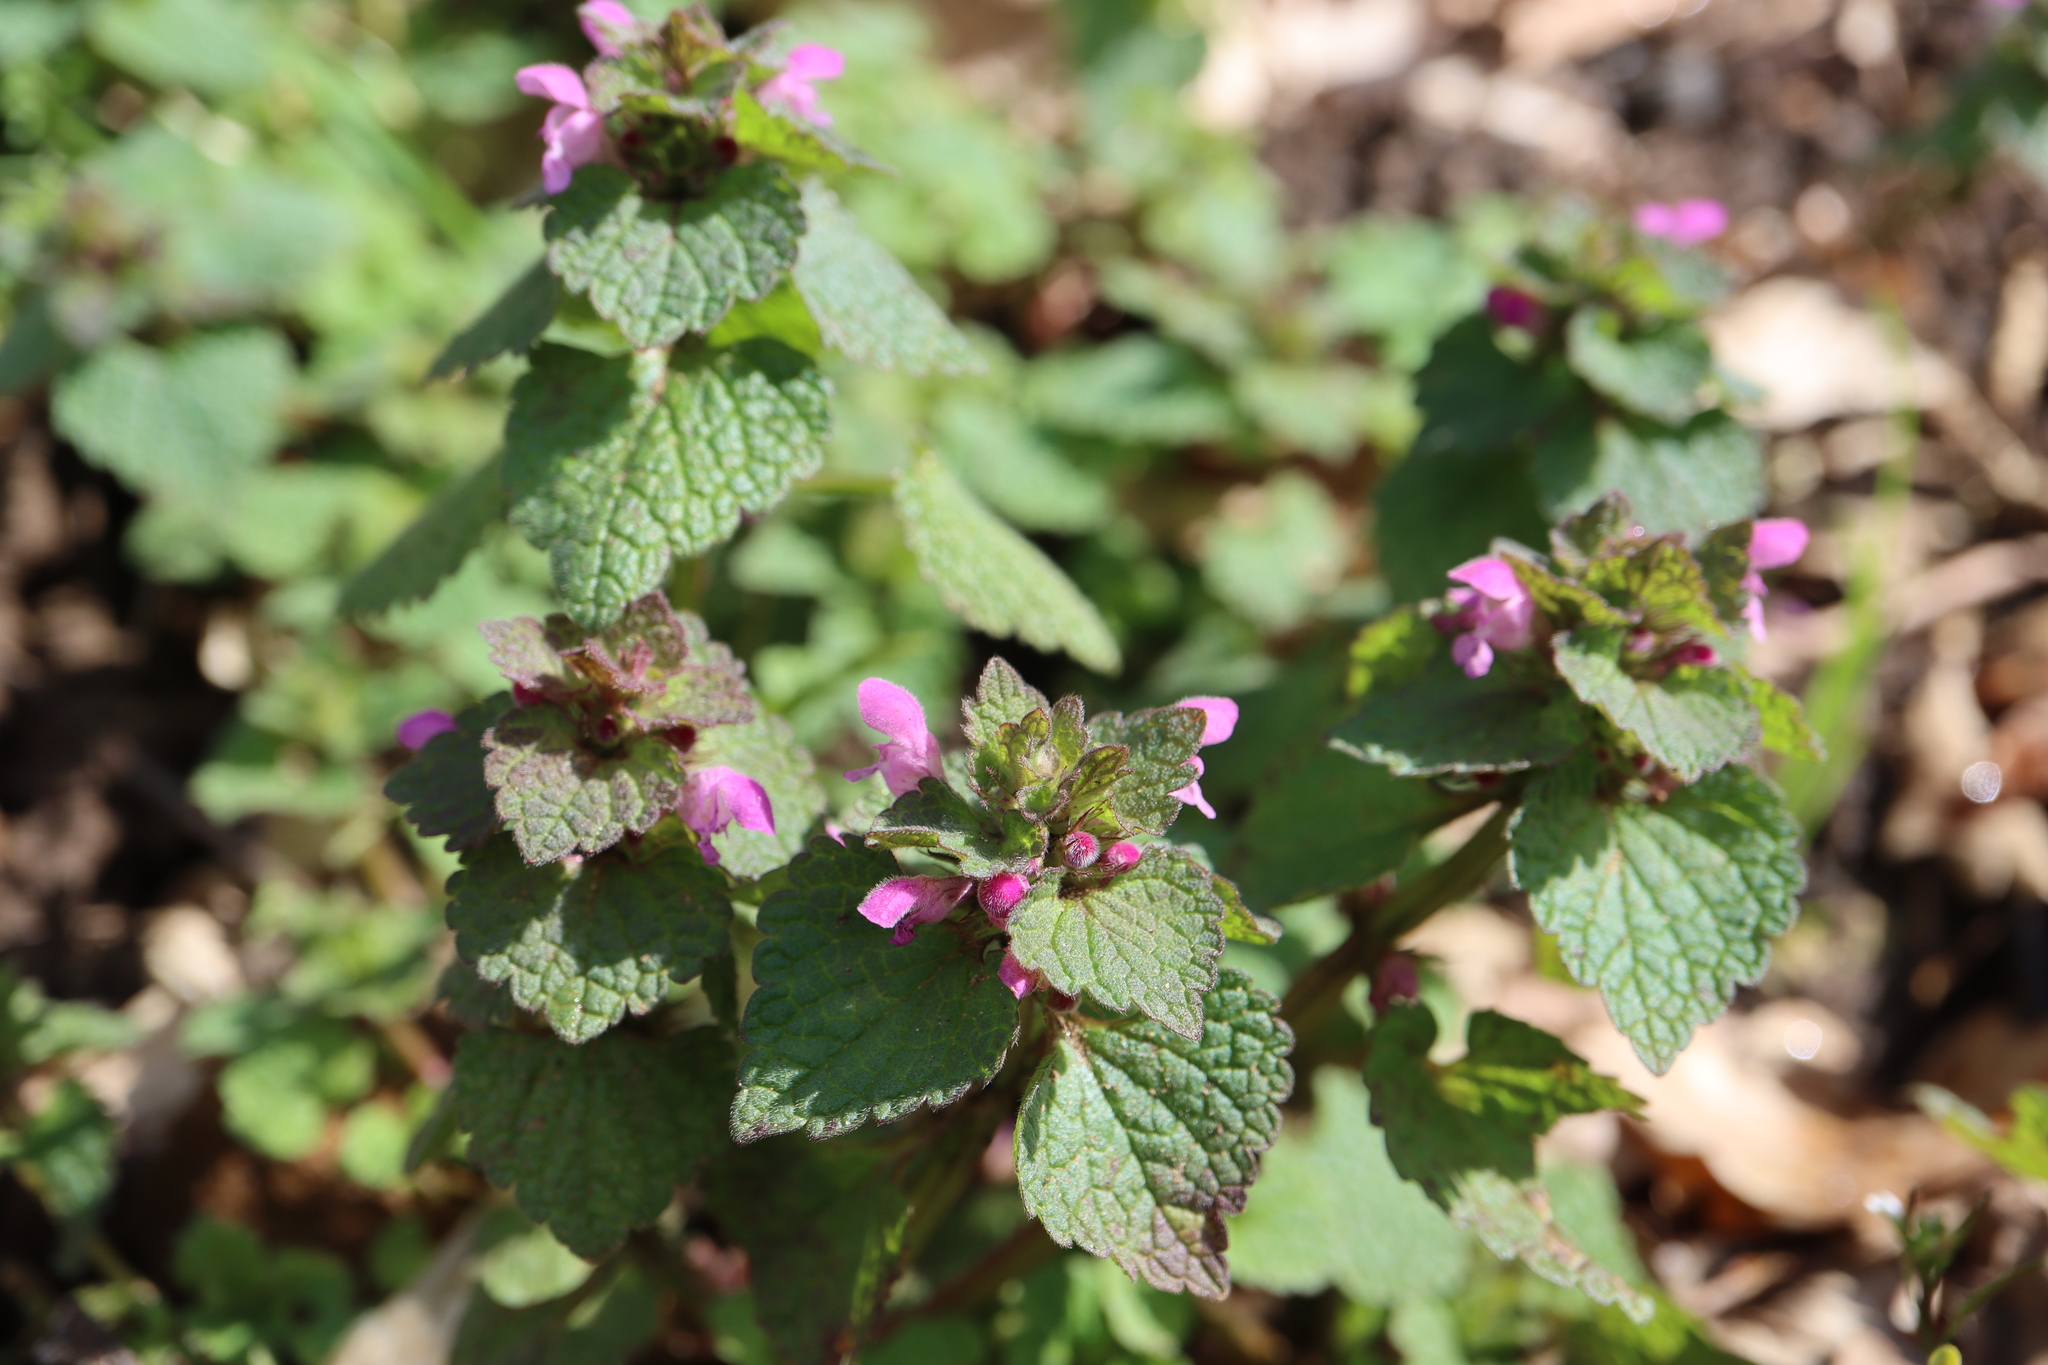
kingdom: Plantae
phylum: Tracheophyta
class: Magnoliopsida
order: Lamiales
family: Lamiaceae
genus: Lamium
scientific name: Lamium purpureum
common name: Red dead-nettle
